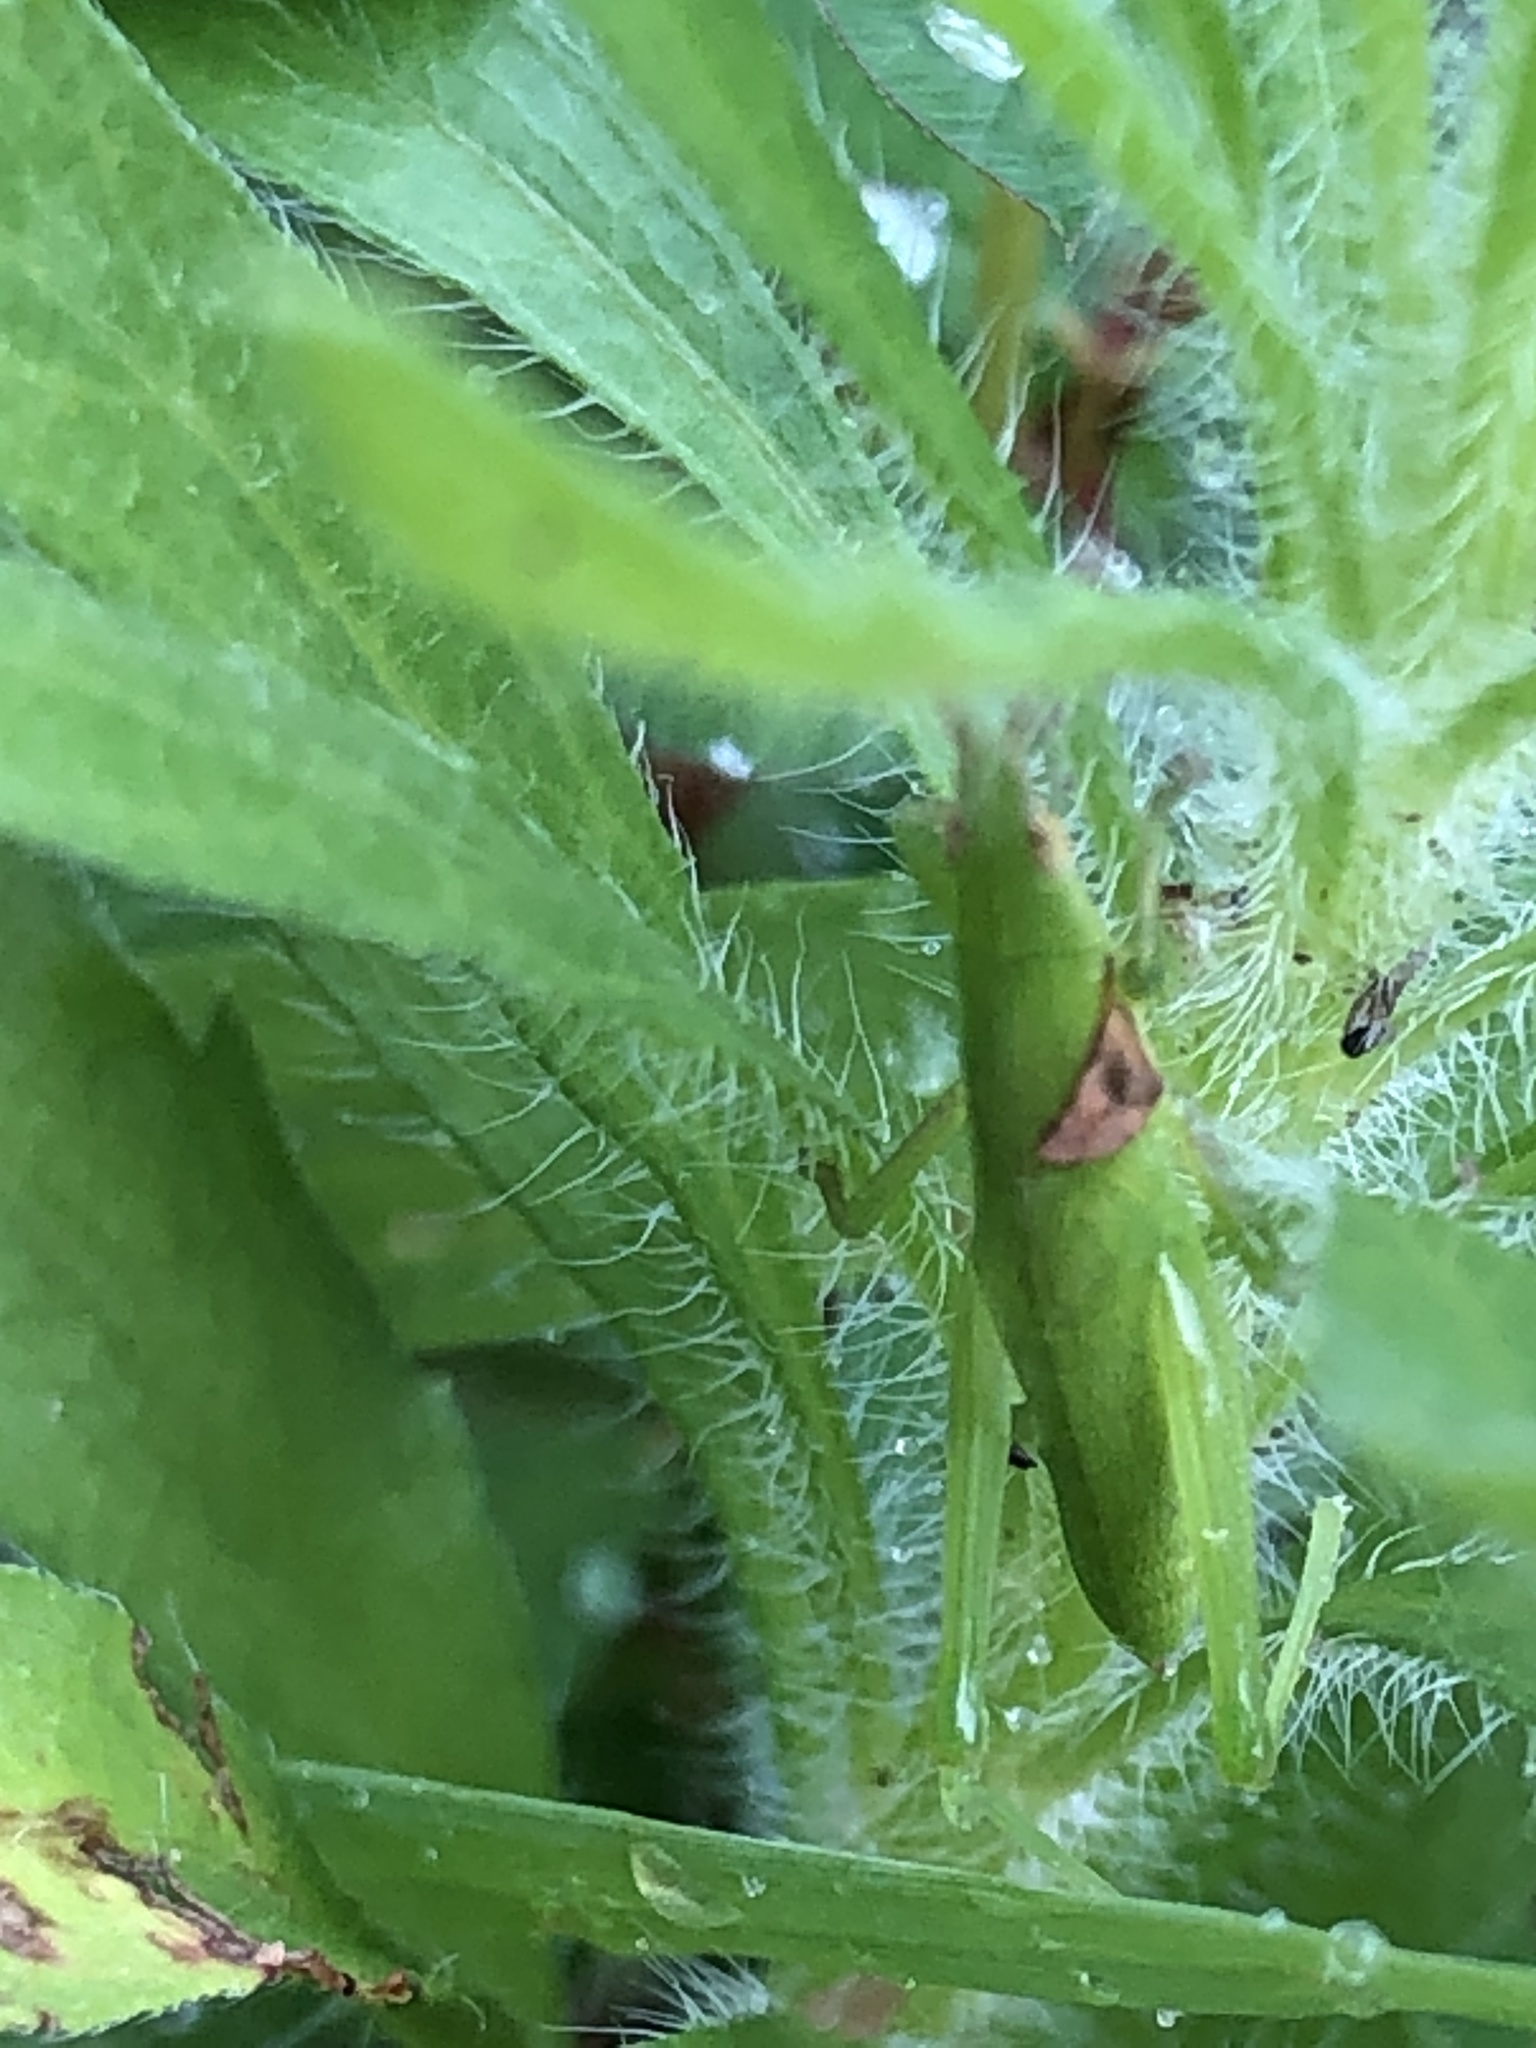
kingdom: Animalia
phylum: Arthropoda
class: Insecta
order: Orthoptera
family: Pyrgomorphidae
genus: Atractomorpha
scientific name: Atractomorpha lata
